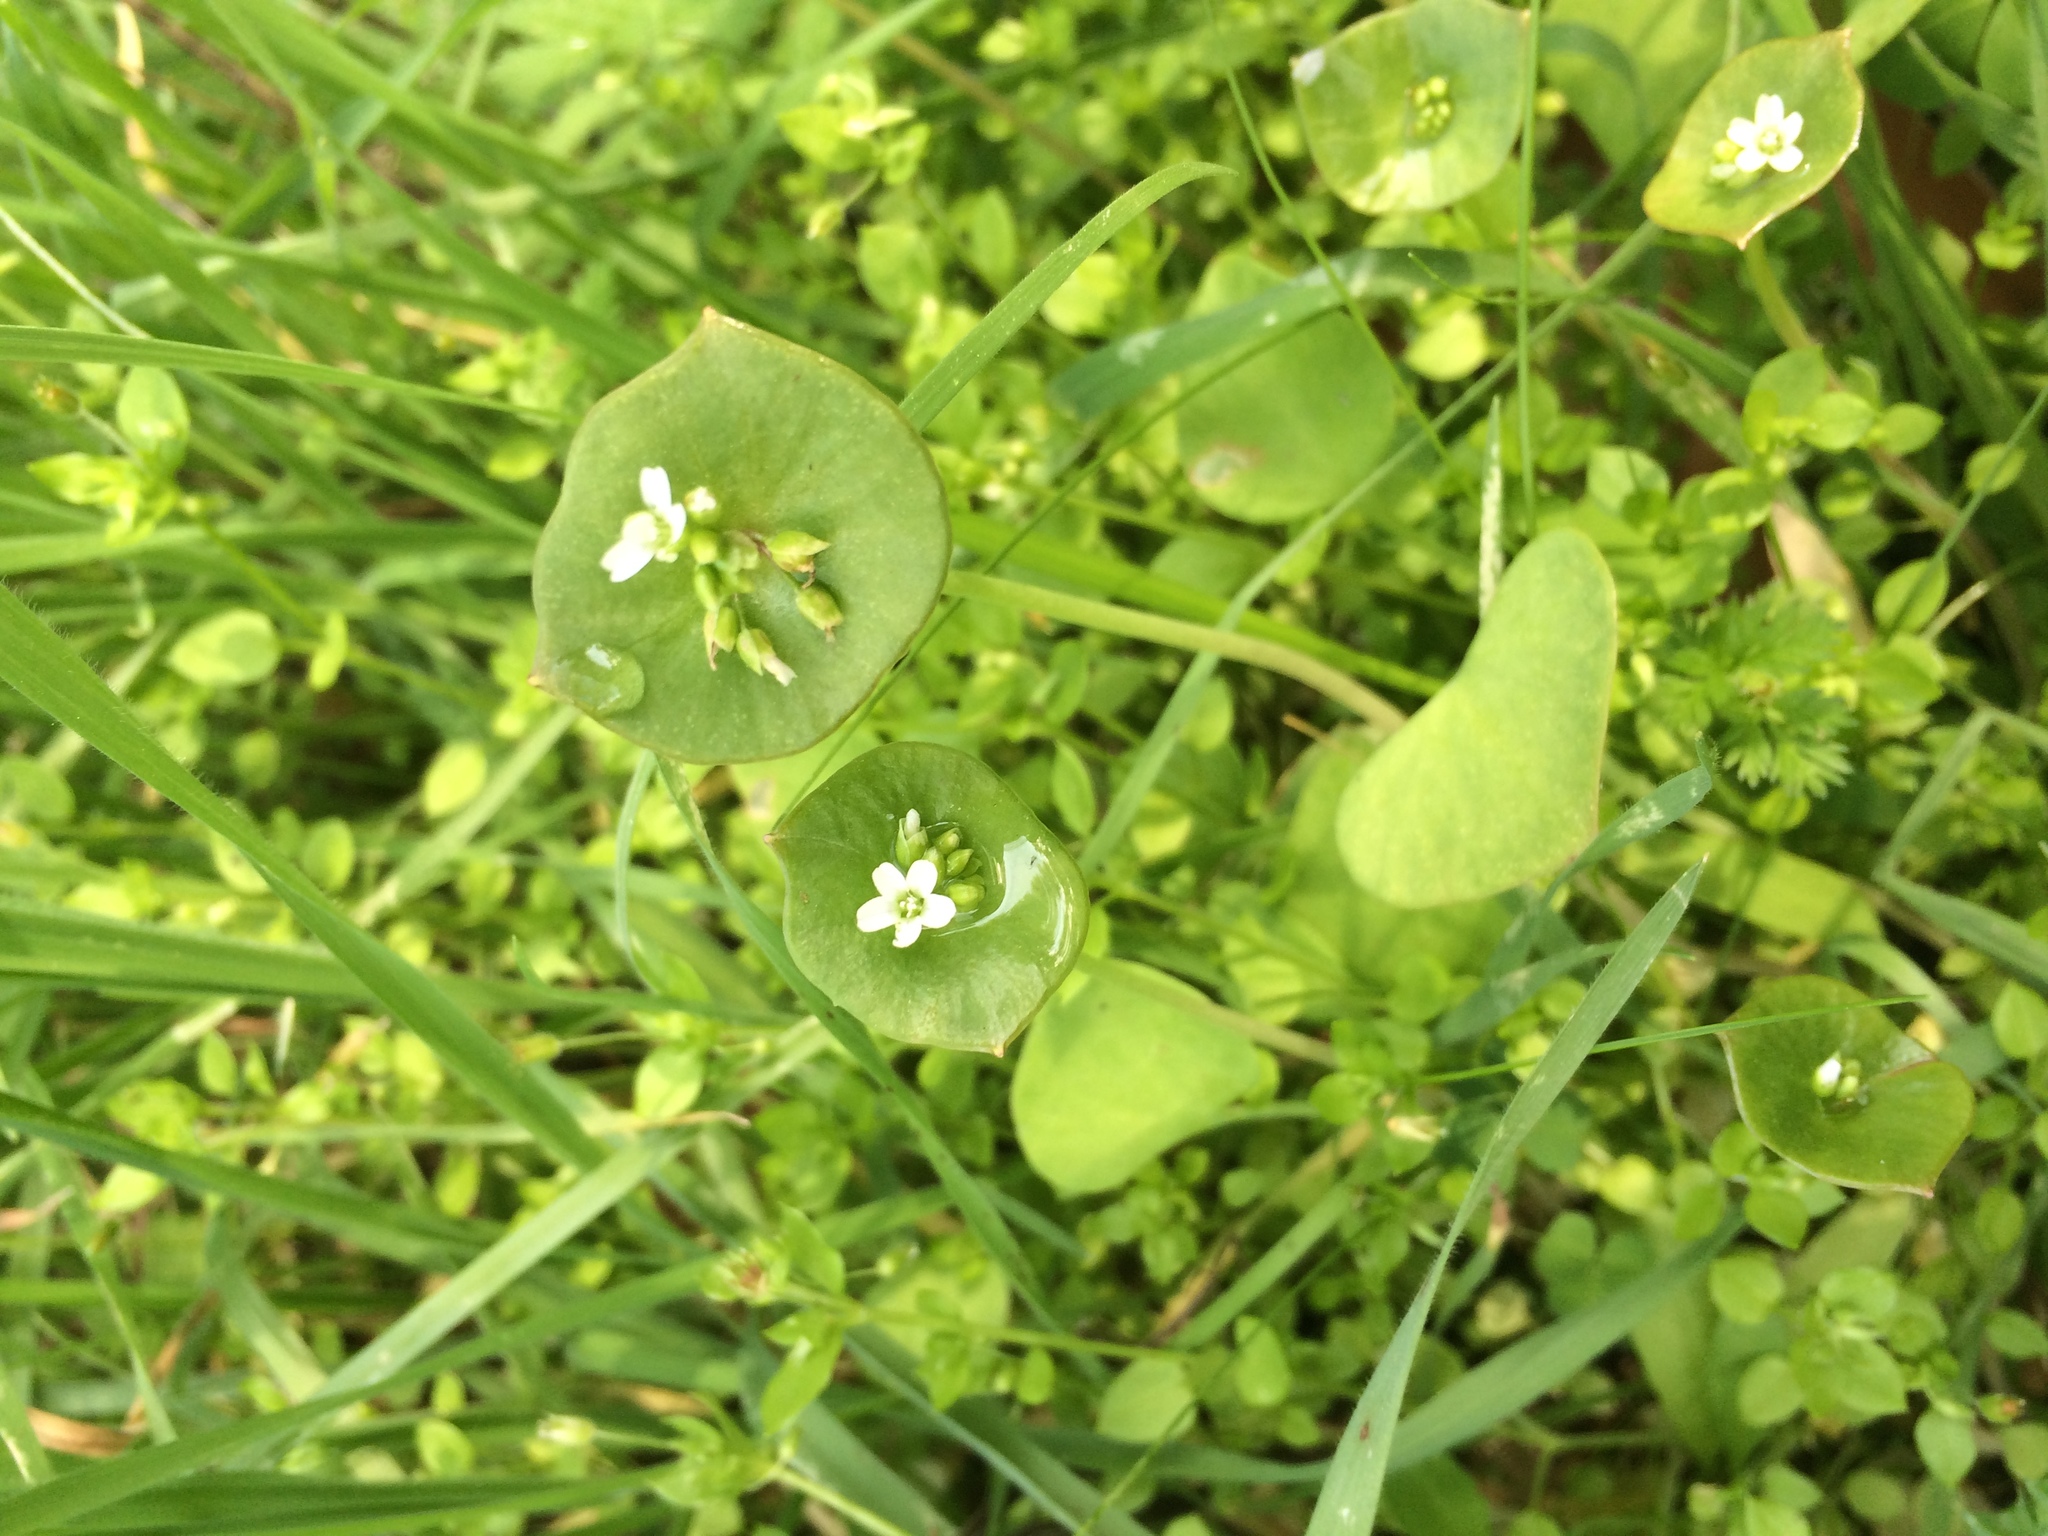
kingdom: Plantae
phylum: Tracheophyta
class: Magnoliopsida
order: Caryophyllales
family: Montiaceae
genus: Claytonia
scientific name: Claytonia perfoliata
